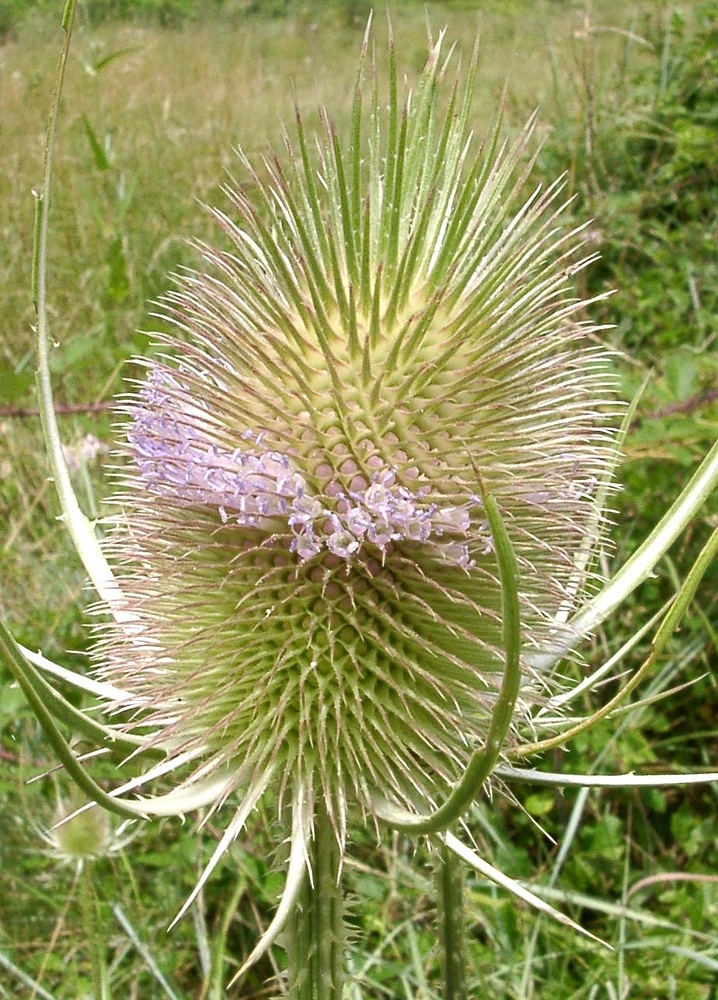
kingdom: Plantae
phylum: Tracheophyta
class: Magnoliopsida
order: Dipsacales
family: Caprifoliaceae
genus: Dipsacus
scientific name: Dipsacus fullonum
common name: Teasel
